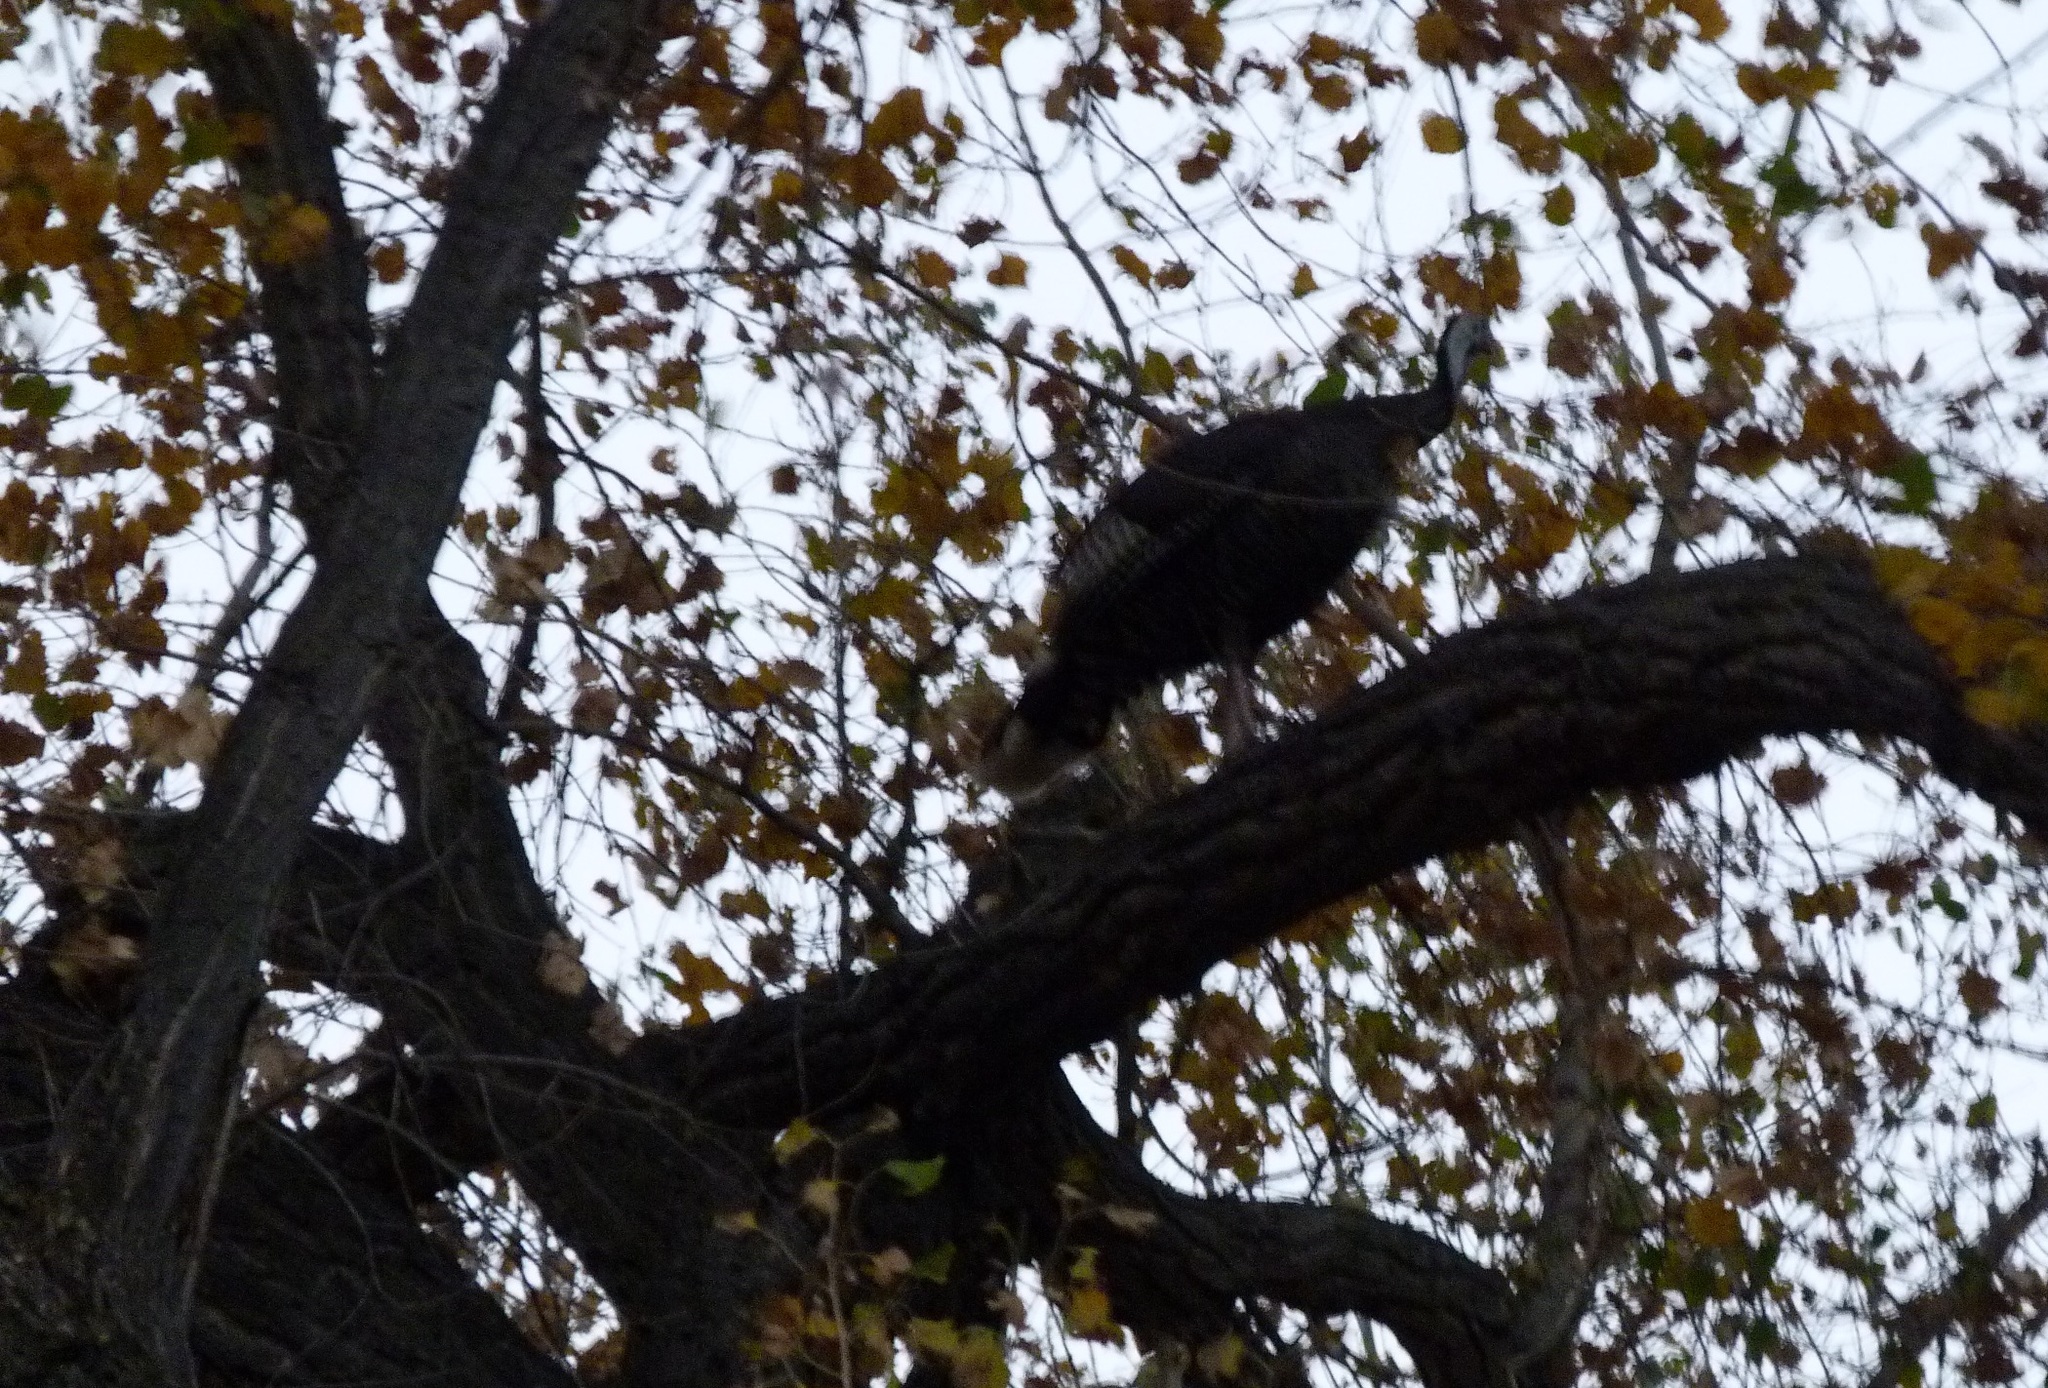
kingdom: Animalia
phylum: Chordata
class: Aves
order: Galliformes
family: Phasianidae
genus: Meleagris
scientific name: Meleagris gallopavo
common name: Wild turkey
